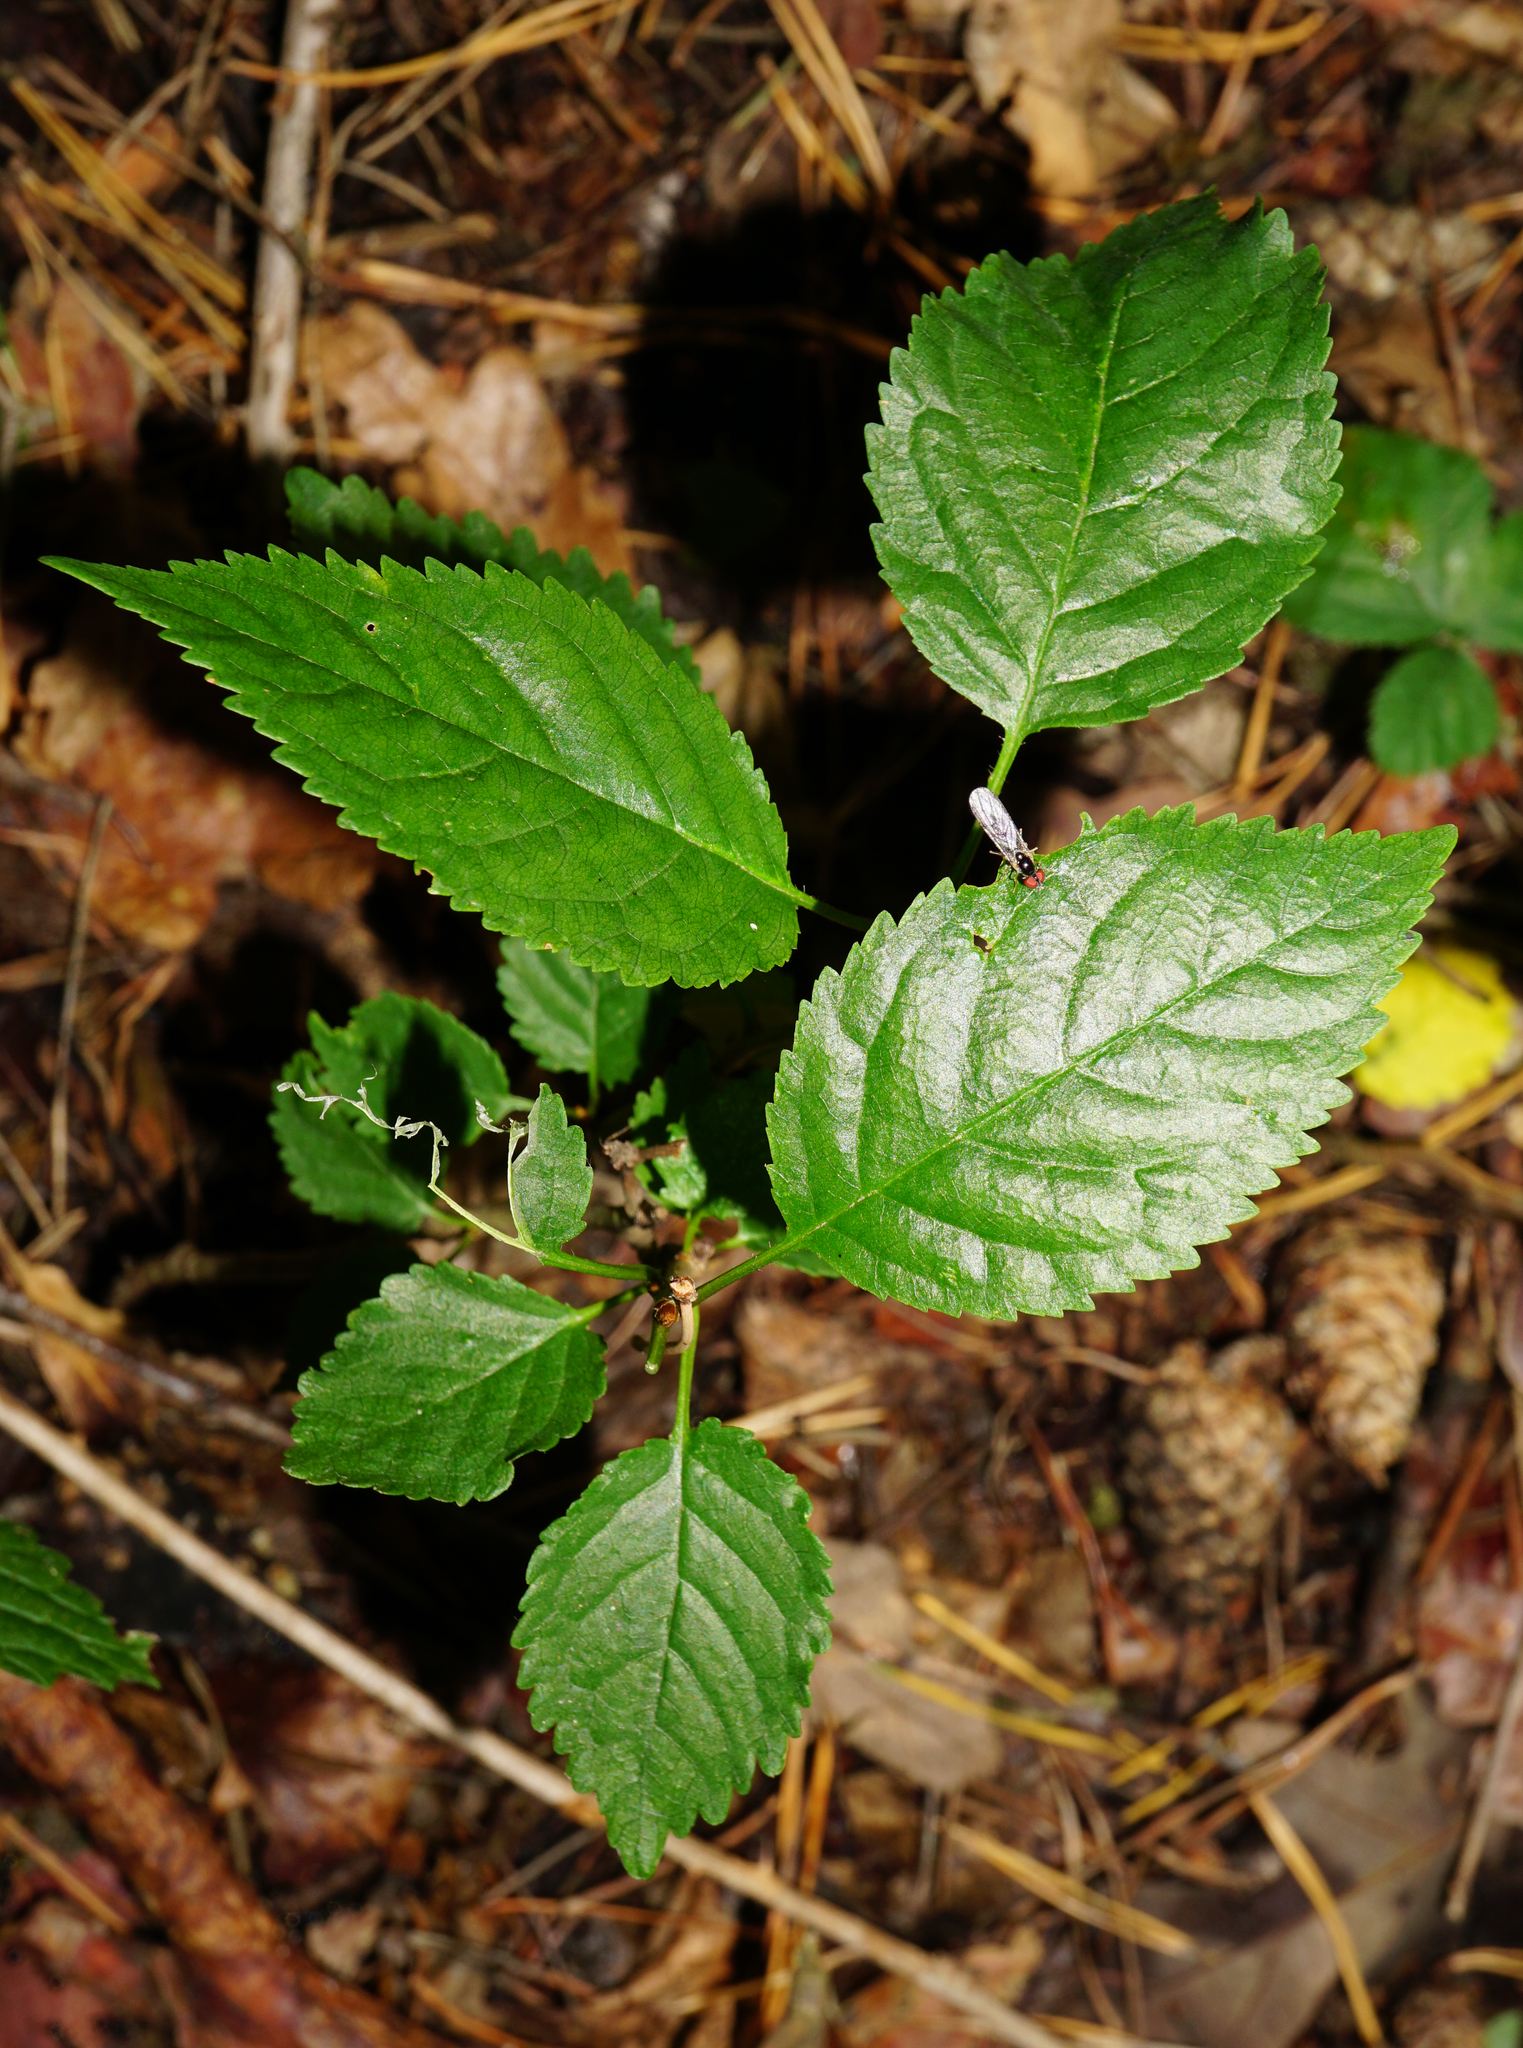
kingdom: Plantae
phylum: Tracheophyta
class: Magnoliopsida
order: Rosales
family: Rosaceae
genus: Prunus
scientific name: Prunus avium
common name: Sweet cherry
